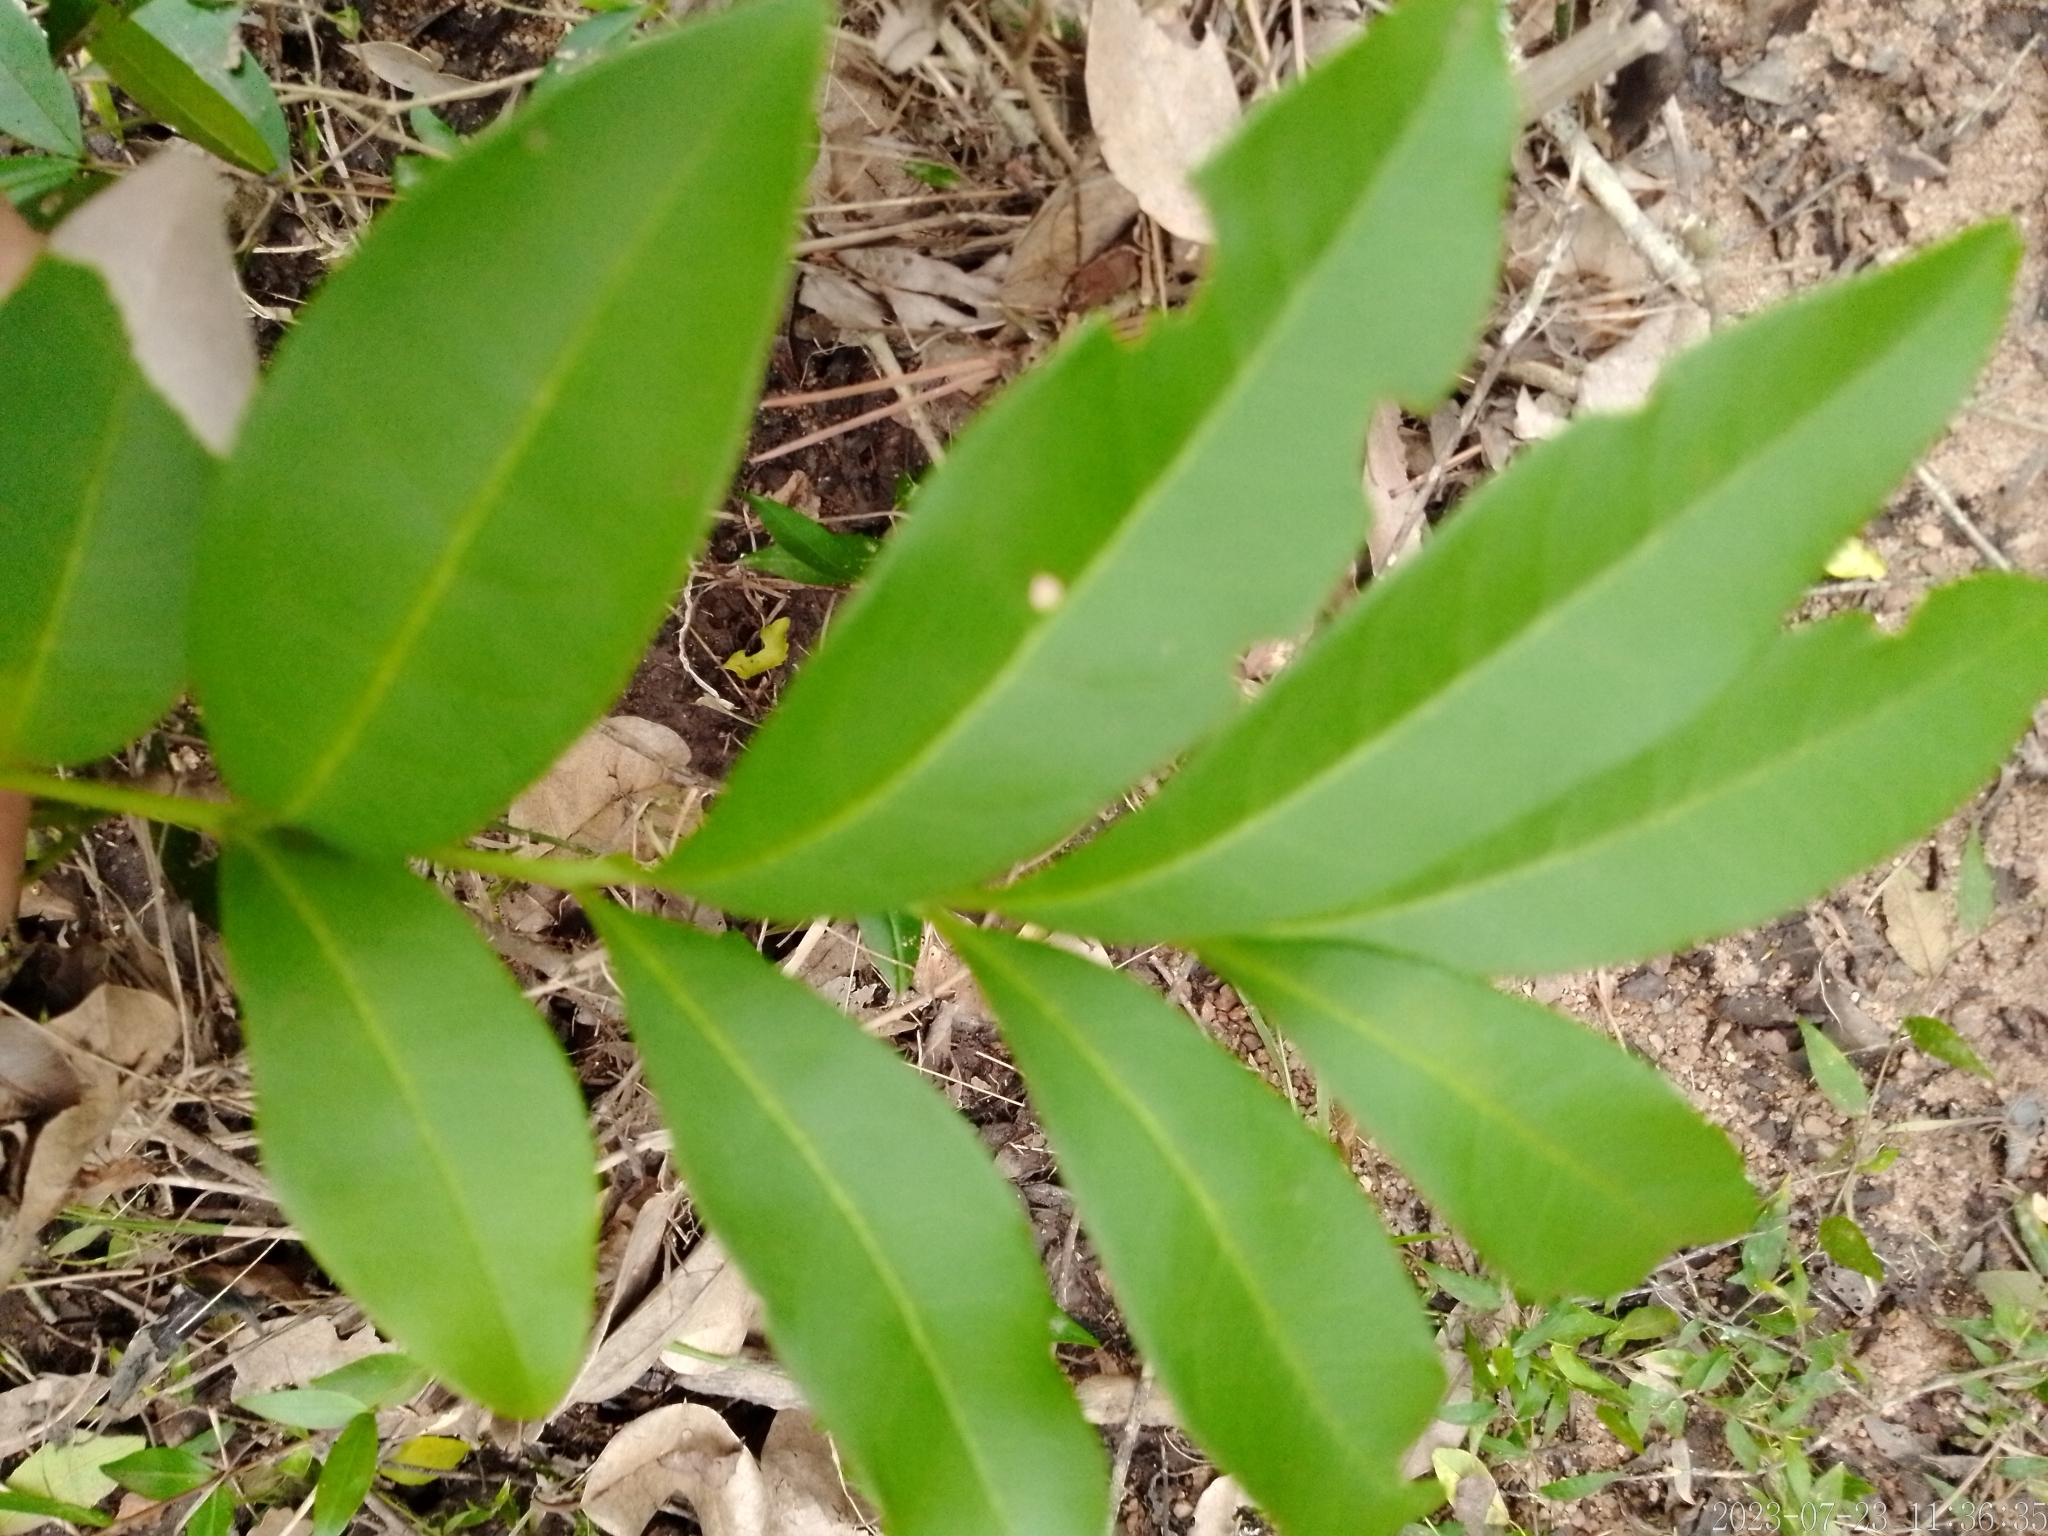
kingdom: Plantae
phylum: Tracheophyta
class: Magnoliopsida
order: Sapindales
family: Sapindaceae
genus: Matayba
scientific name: Matayba elaeagnoides
